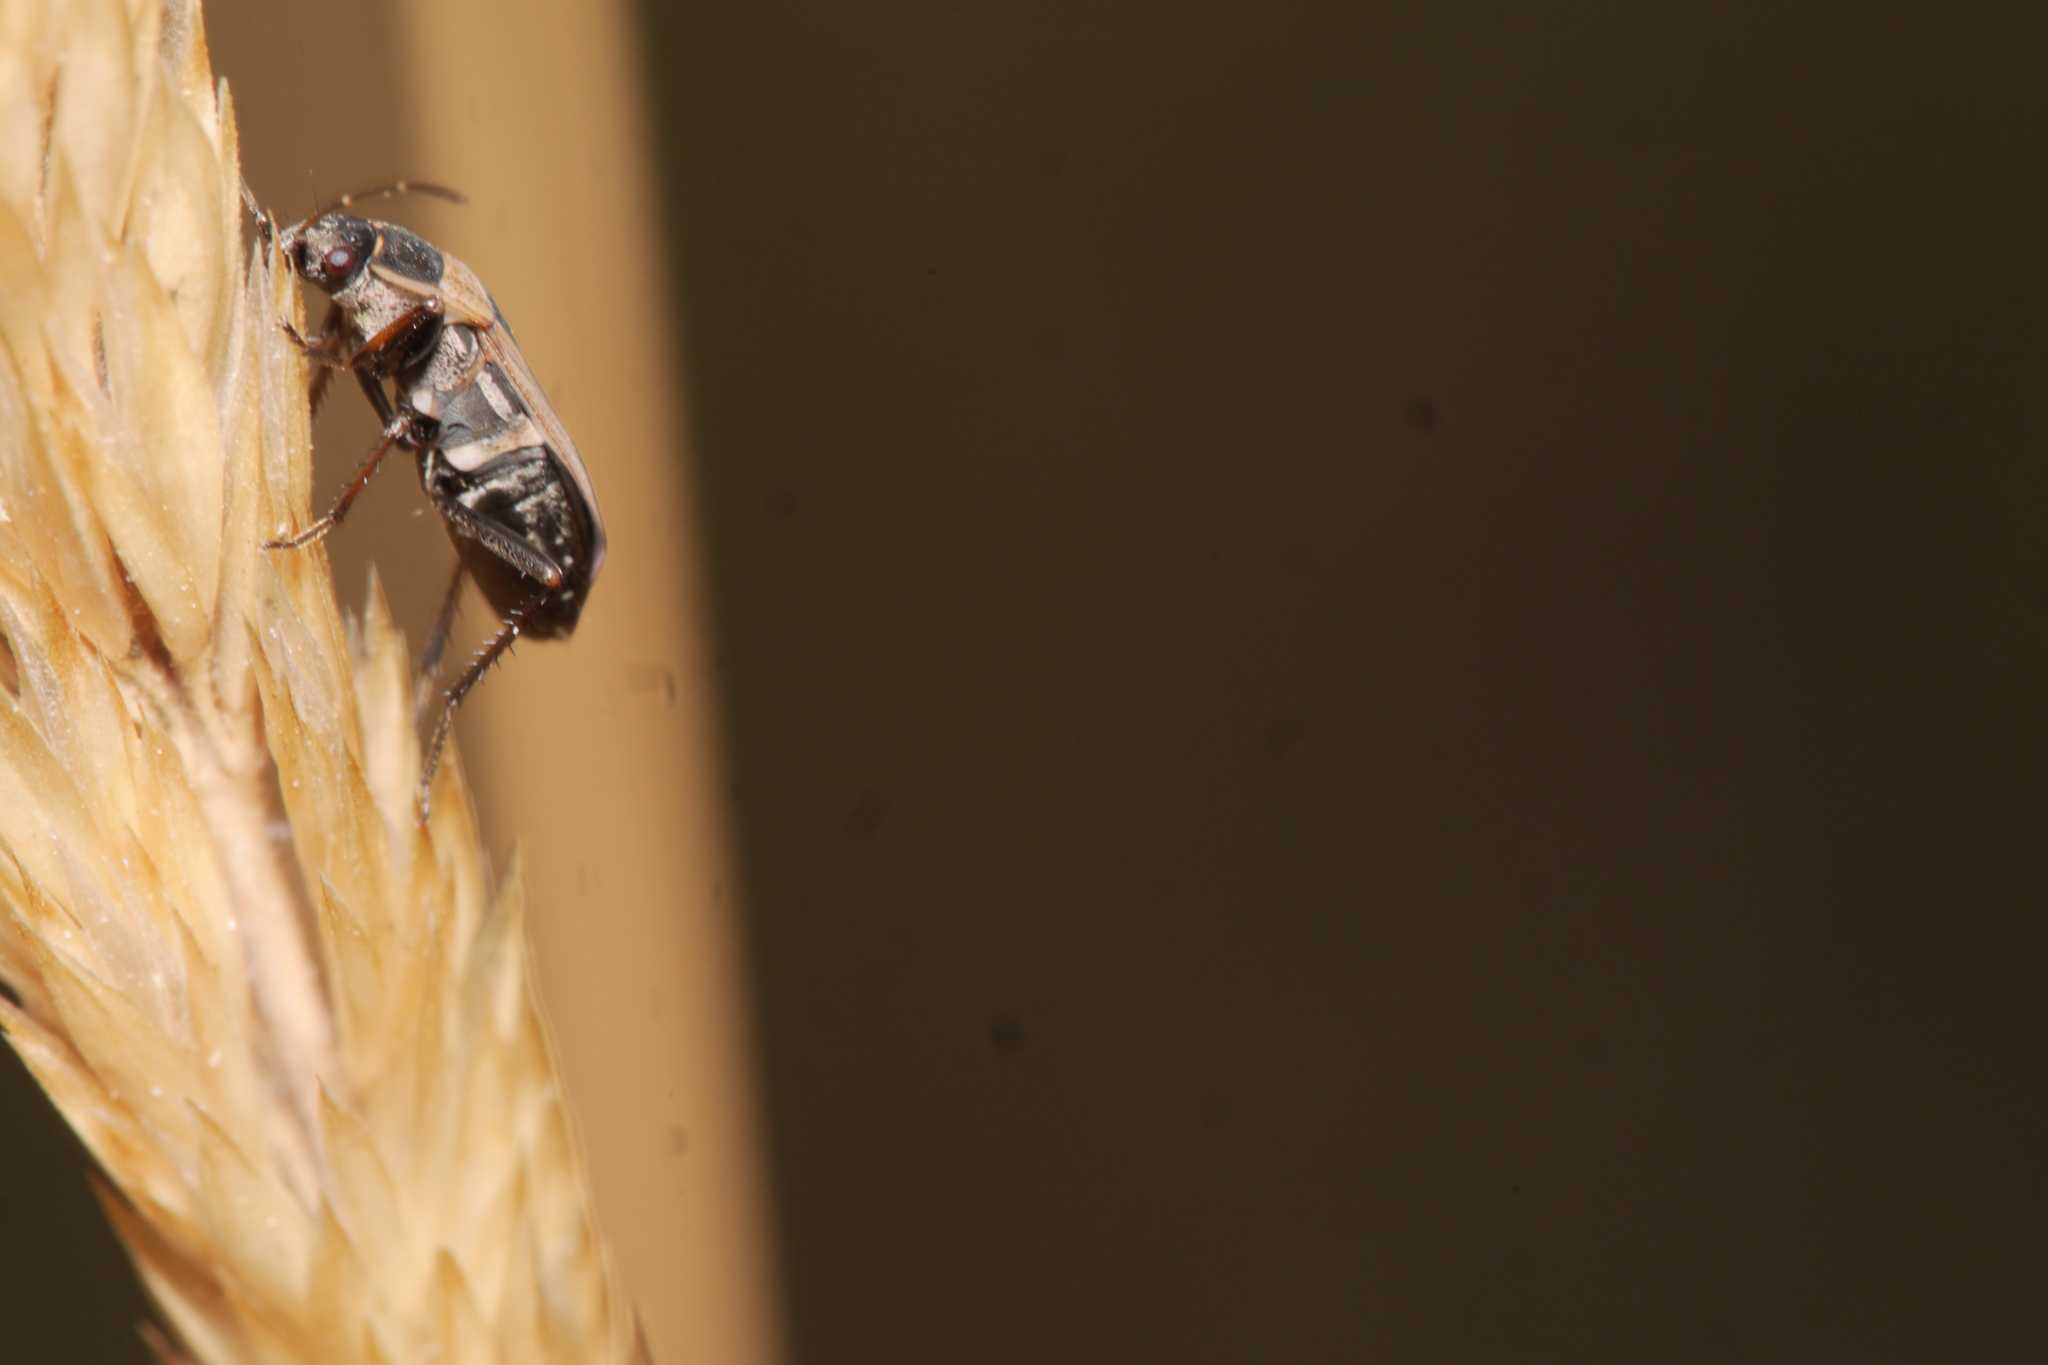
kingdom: Animalia
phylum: Arthropoda
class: Insecta
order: Hemiptera
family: Rhyparochromidae
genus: Xanthochilus
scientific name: Xanthochilus quadratus
